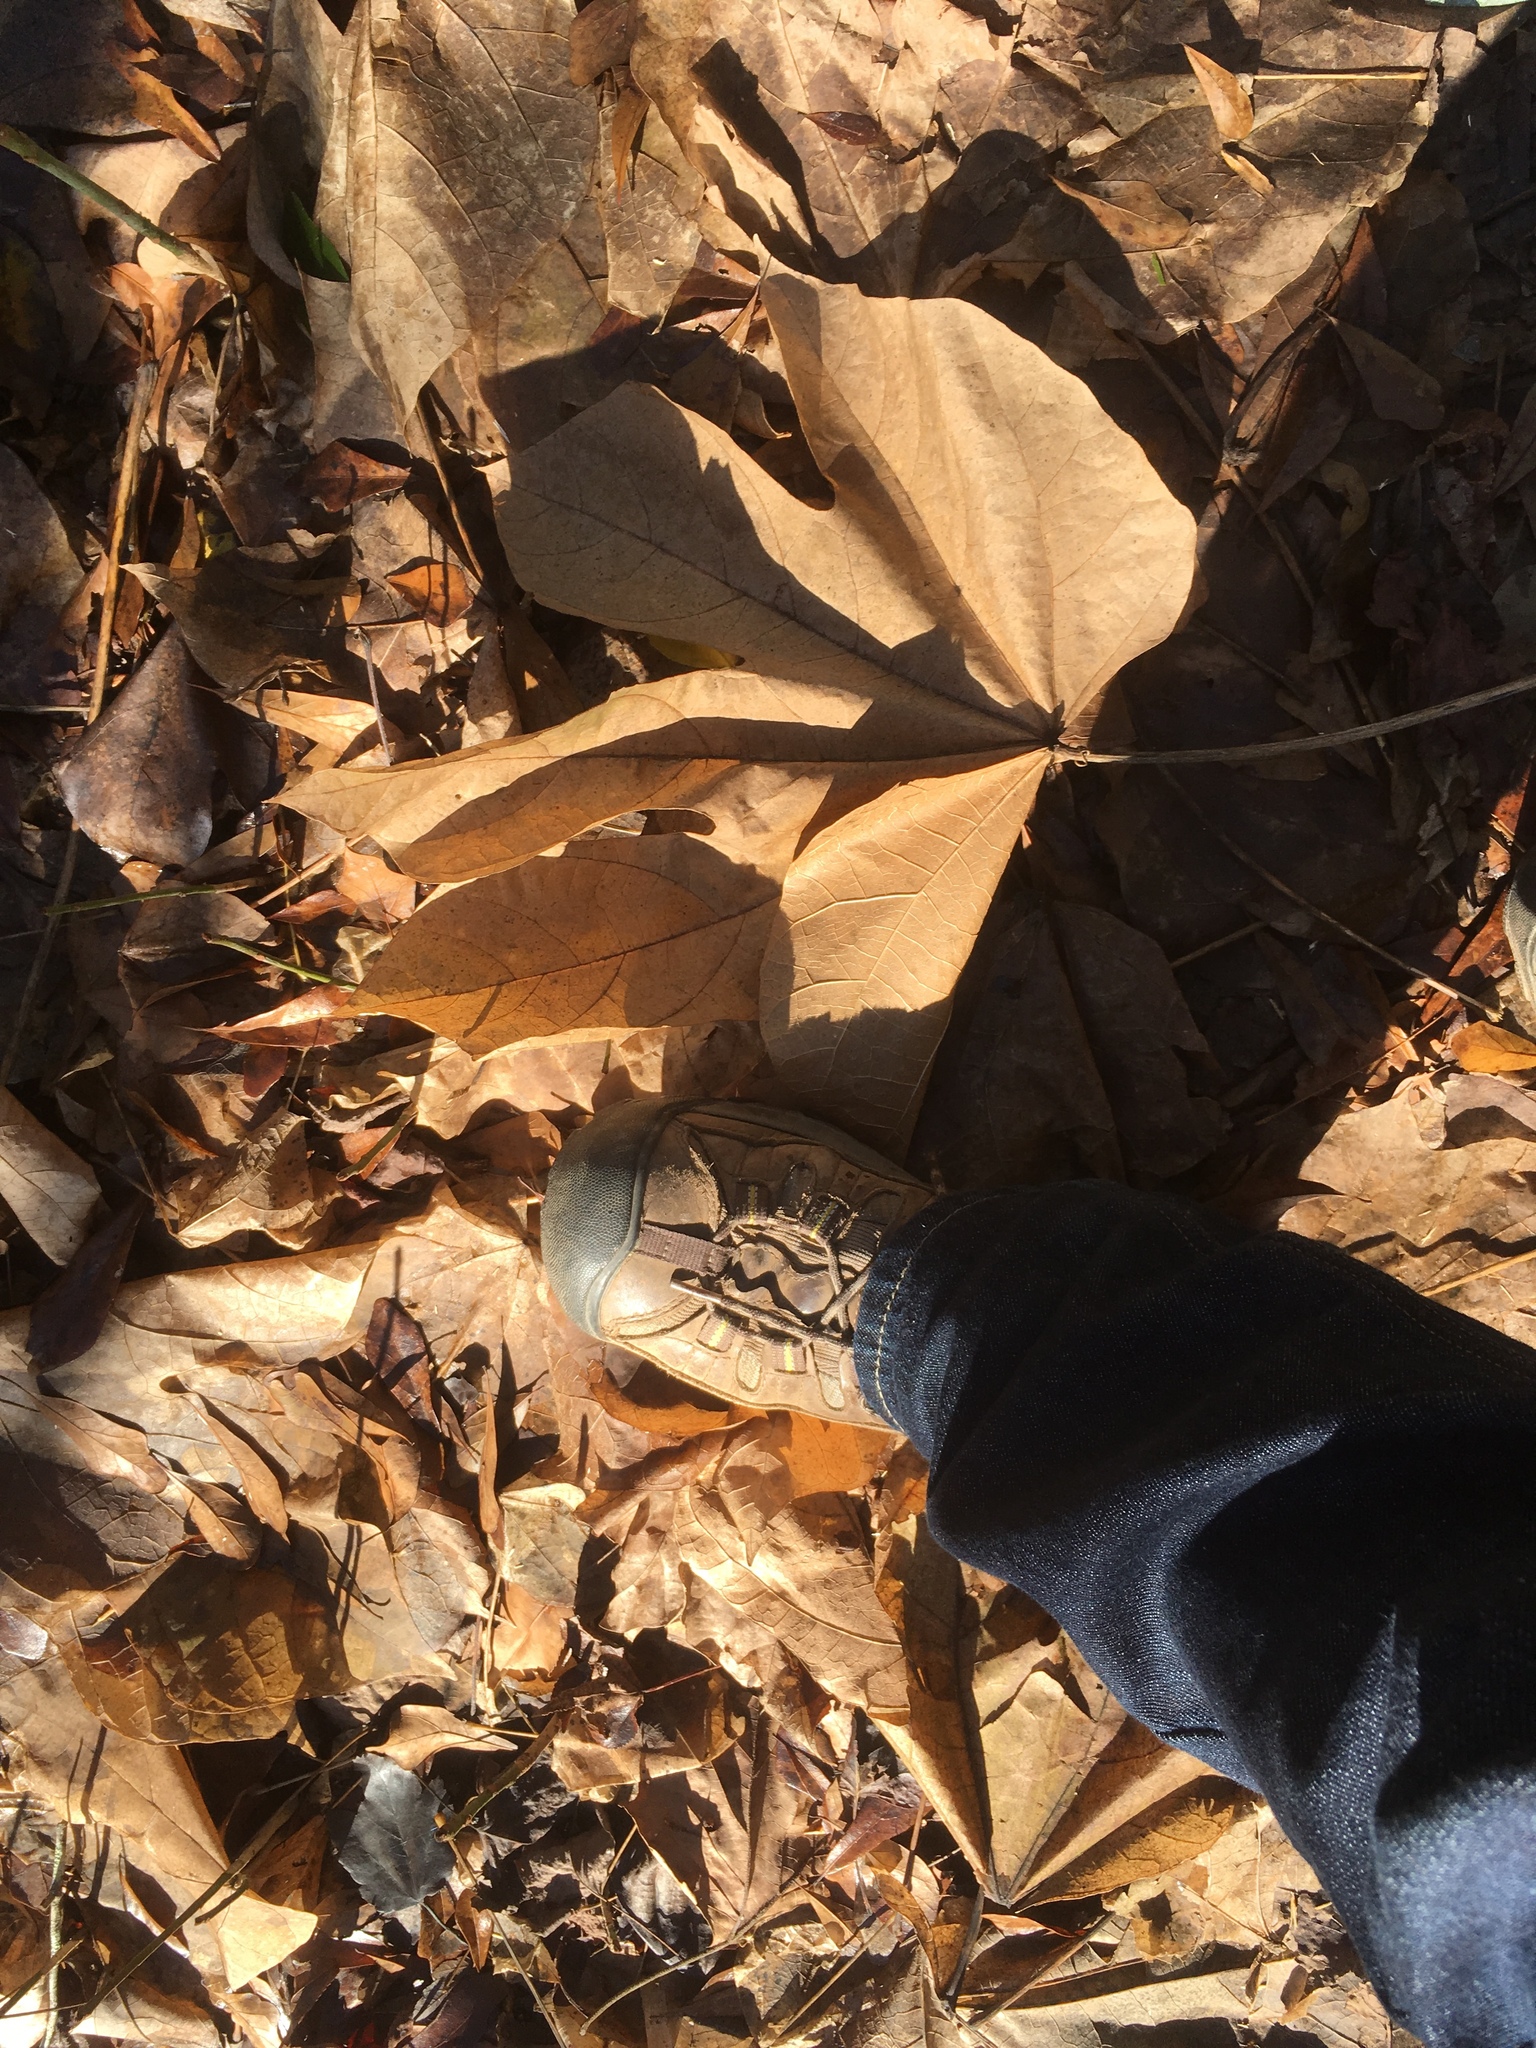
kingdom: Plantae
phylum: Tracheophyta
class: Magnoliopsida
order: Malvales
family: Malvaceae
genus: Firmiana
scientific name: Firmiana simplex
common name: Chinese parasoltree
